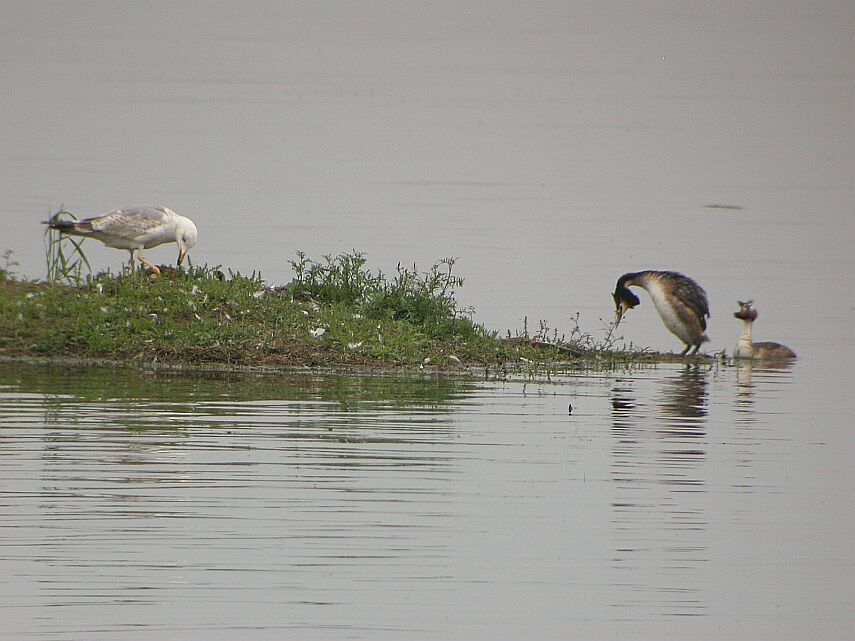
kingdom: Animalia
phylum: Chordata
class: Aves
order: Charadriiformes
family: Laridae
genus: Larus
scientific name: Larus michahellis
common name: Yellow-legged gull
